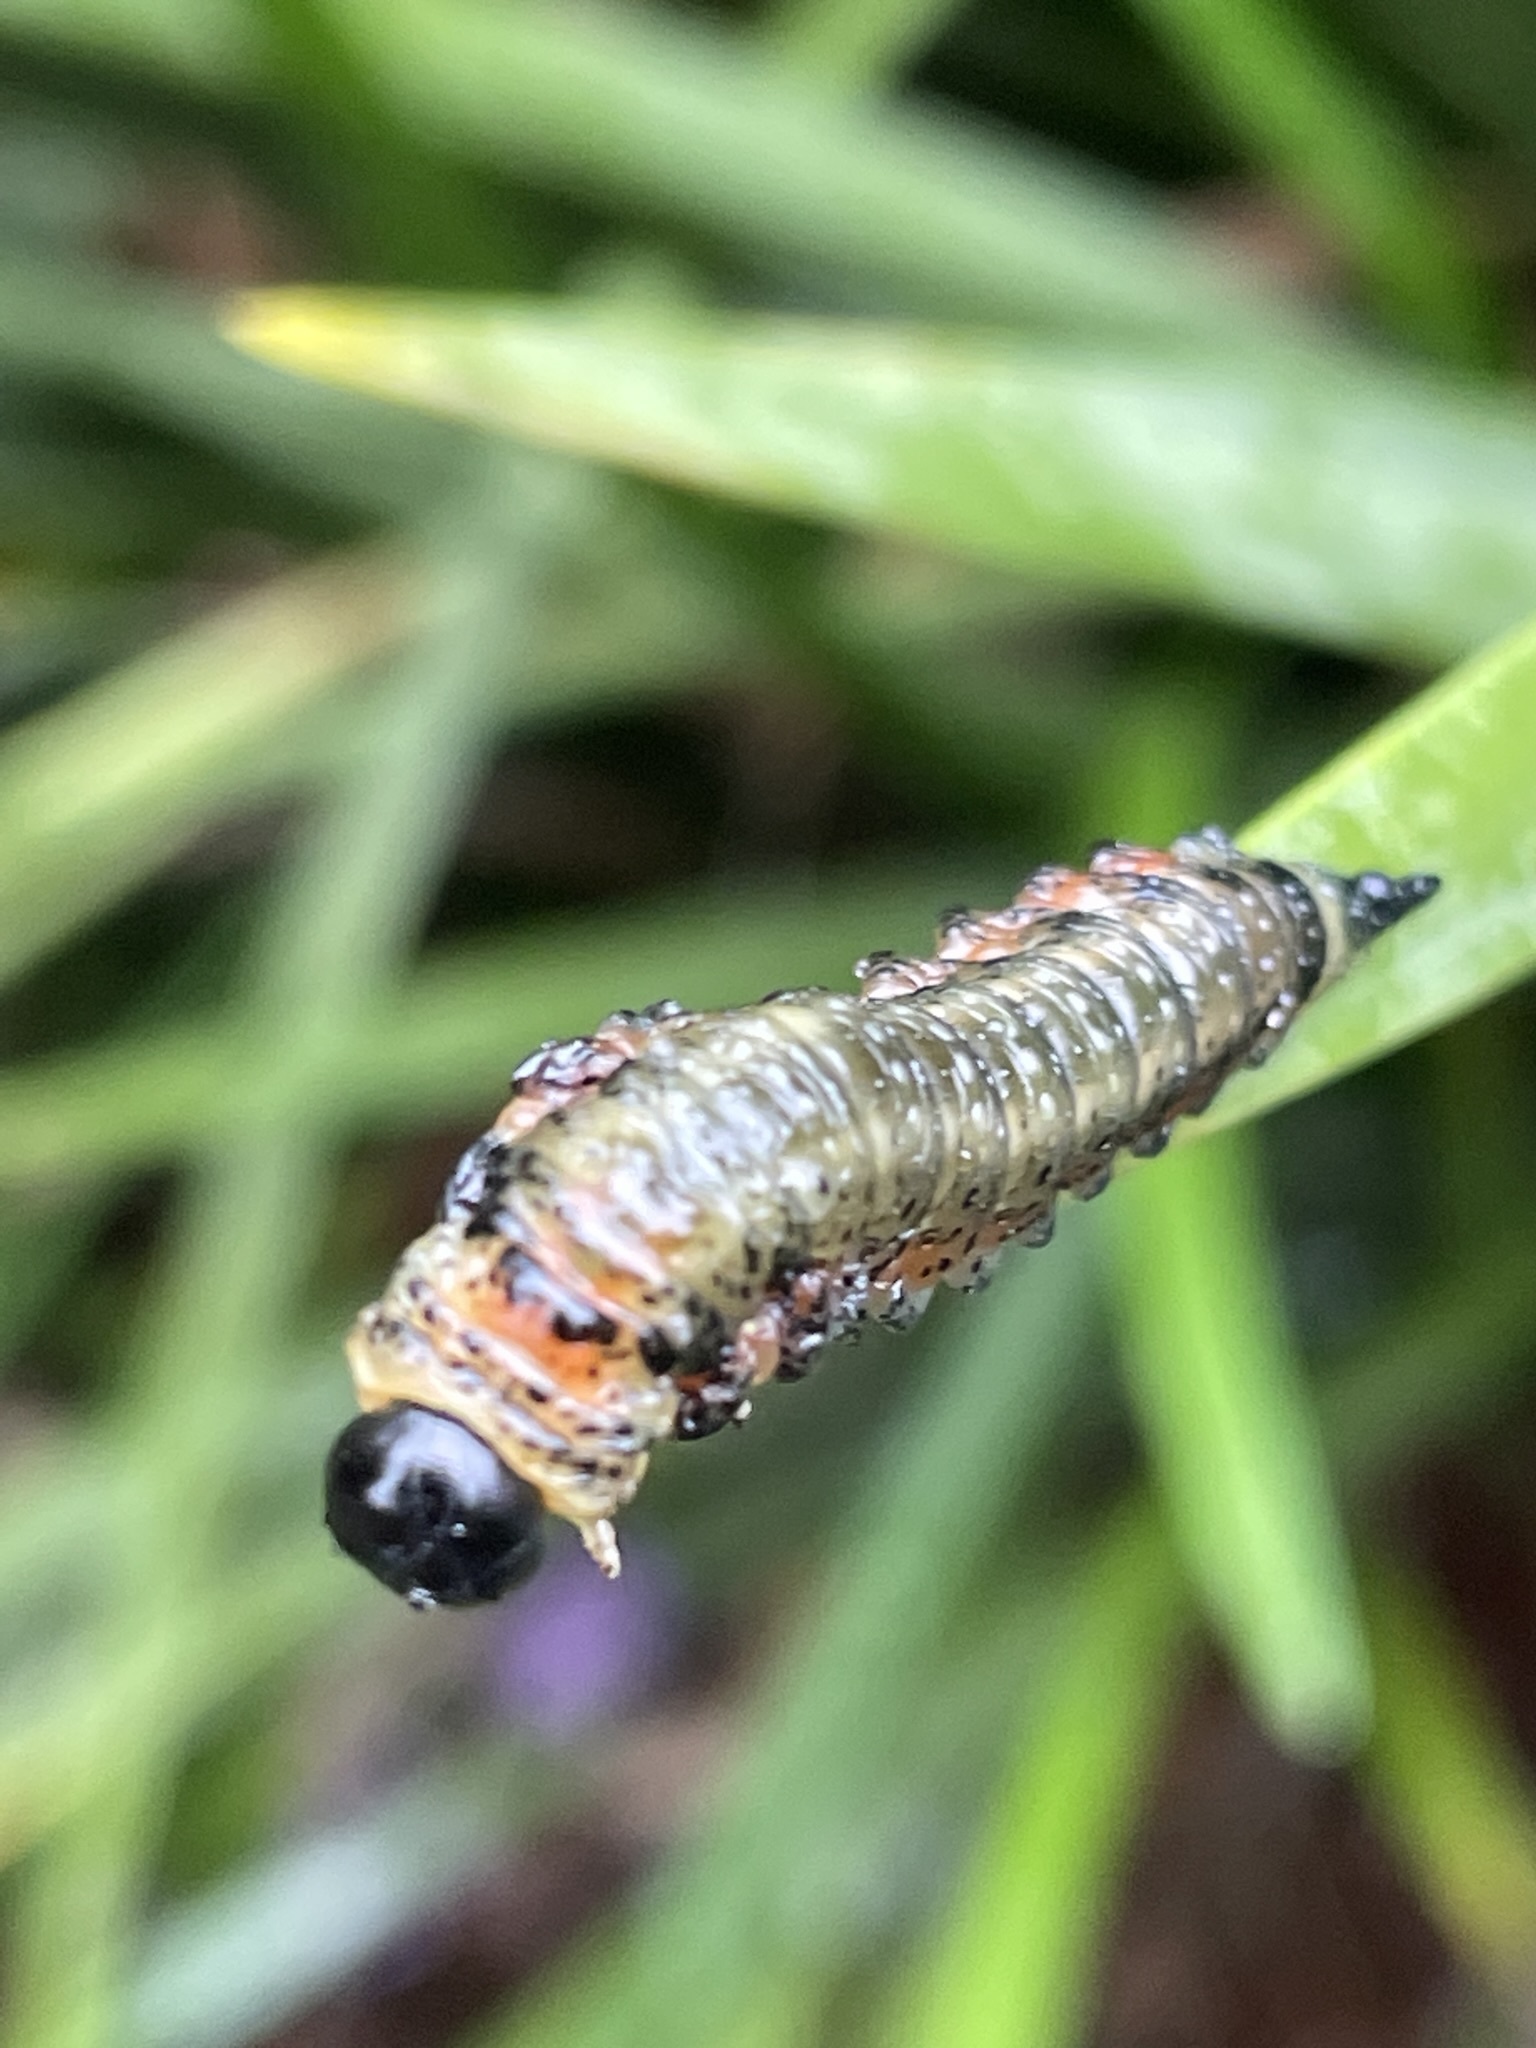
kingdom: Animalia
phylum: Arthropoda
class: Insecta
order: Hymenoptera
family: Pergidae
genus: Pterygophorus
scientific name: Pterygophorus
